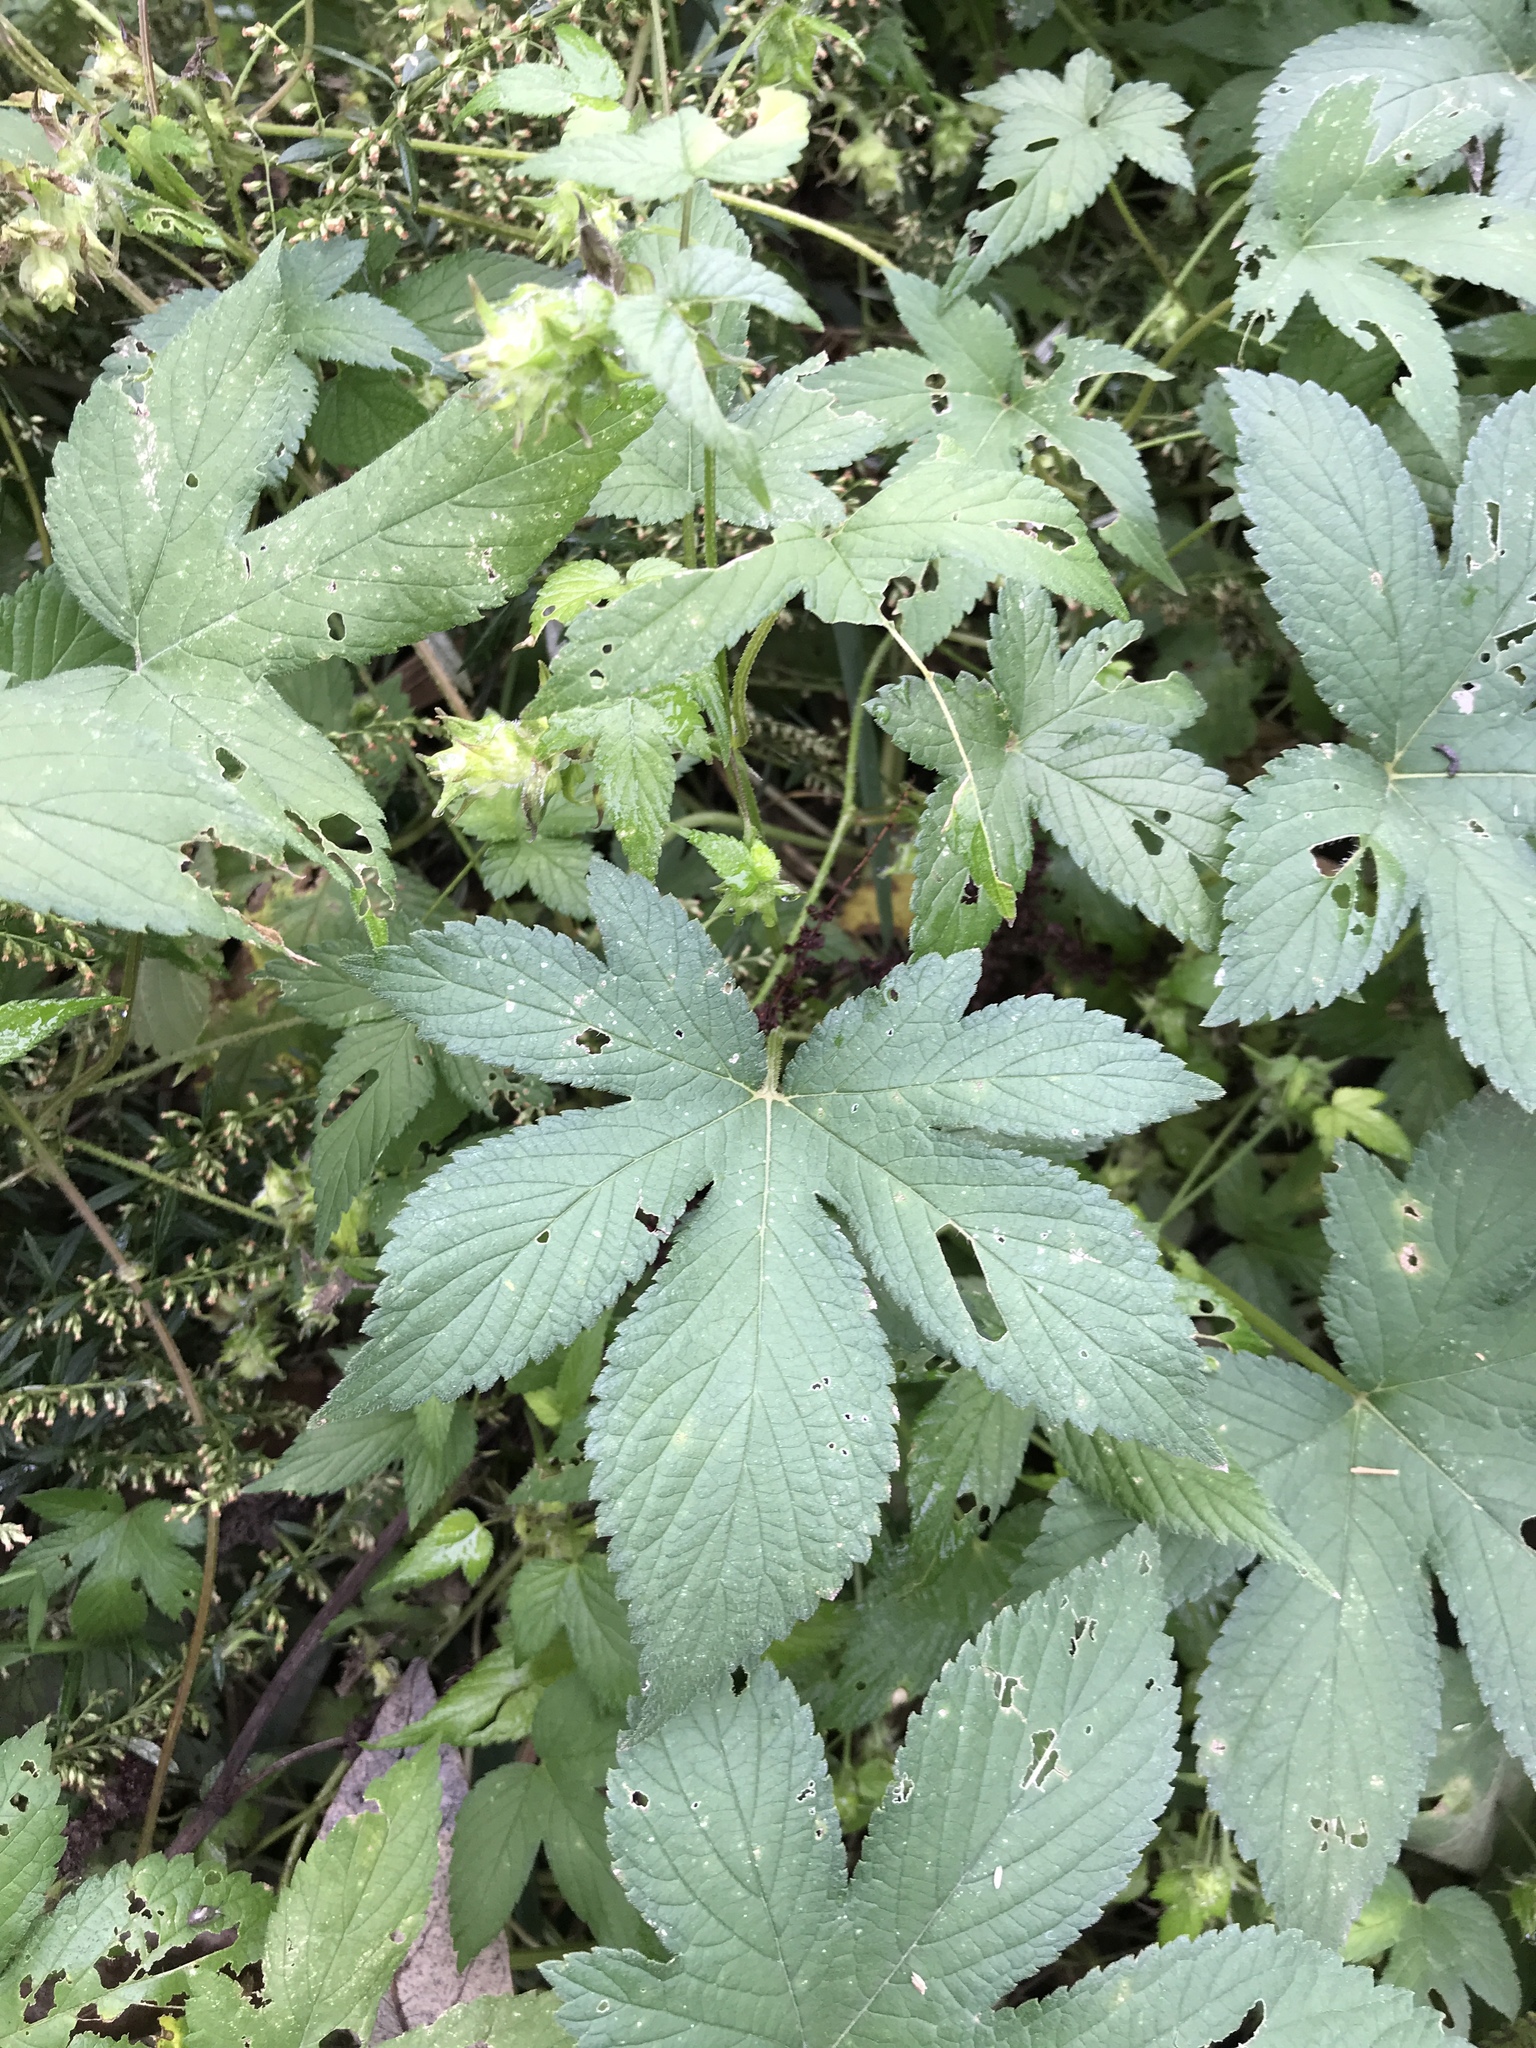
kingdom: Plantae
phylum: Tracheophyta
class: Magnoliopsida
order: Rosales
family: Cannabaceae
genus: Humulus
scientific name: Humulus scandens
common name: Japanese hop
